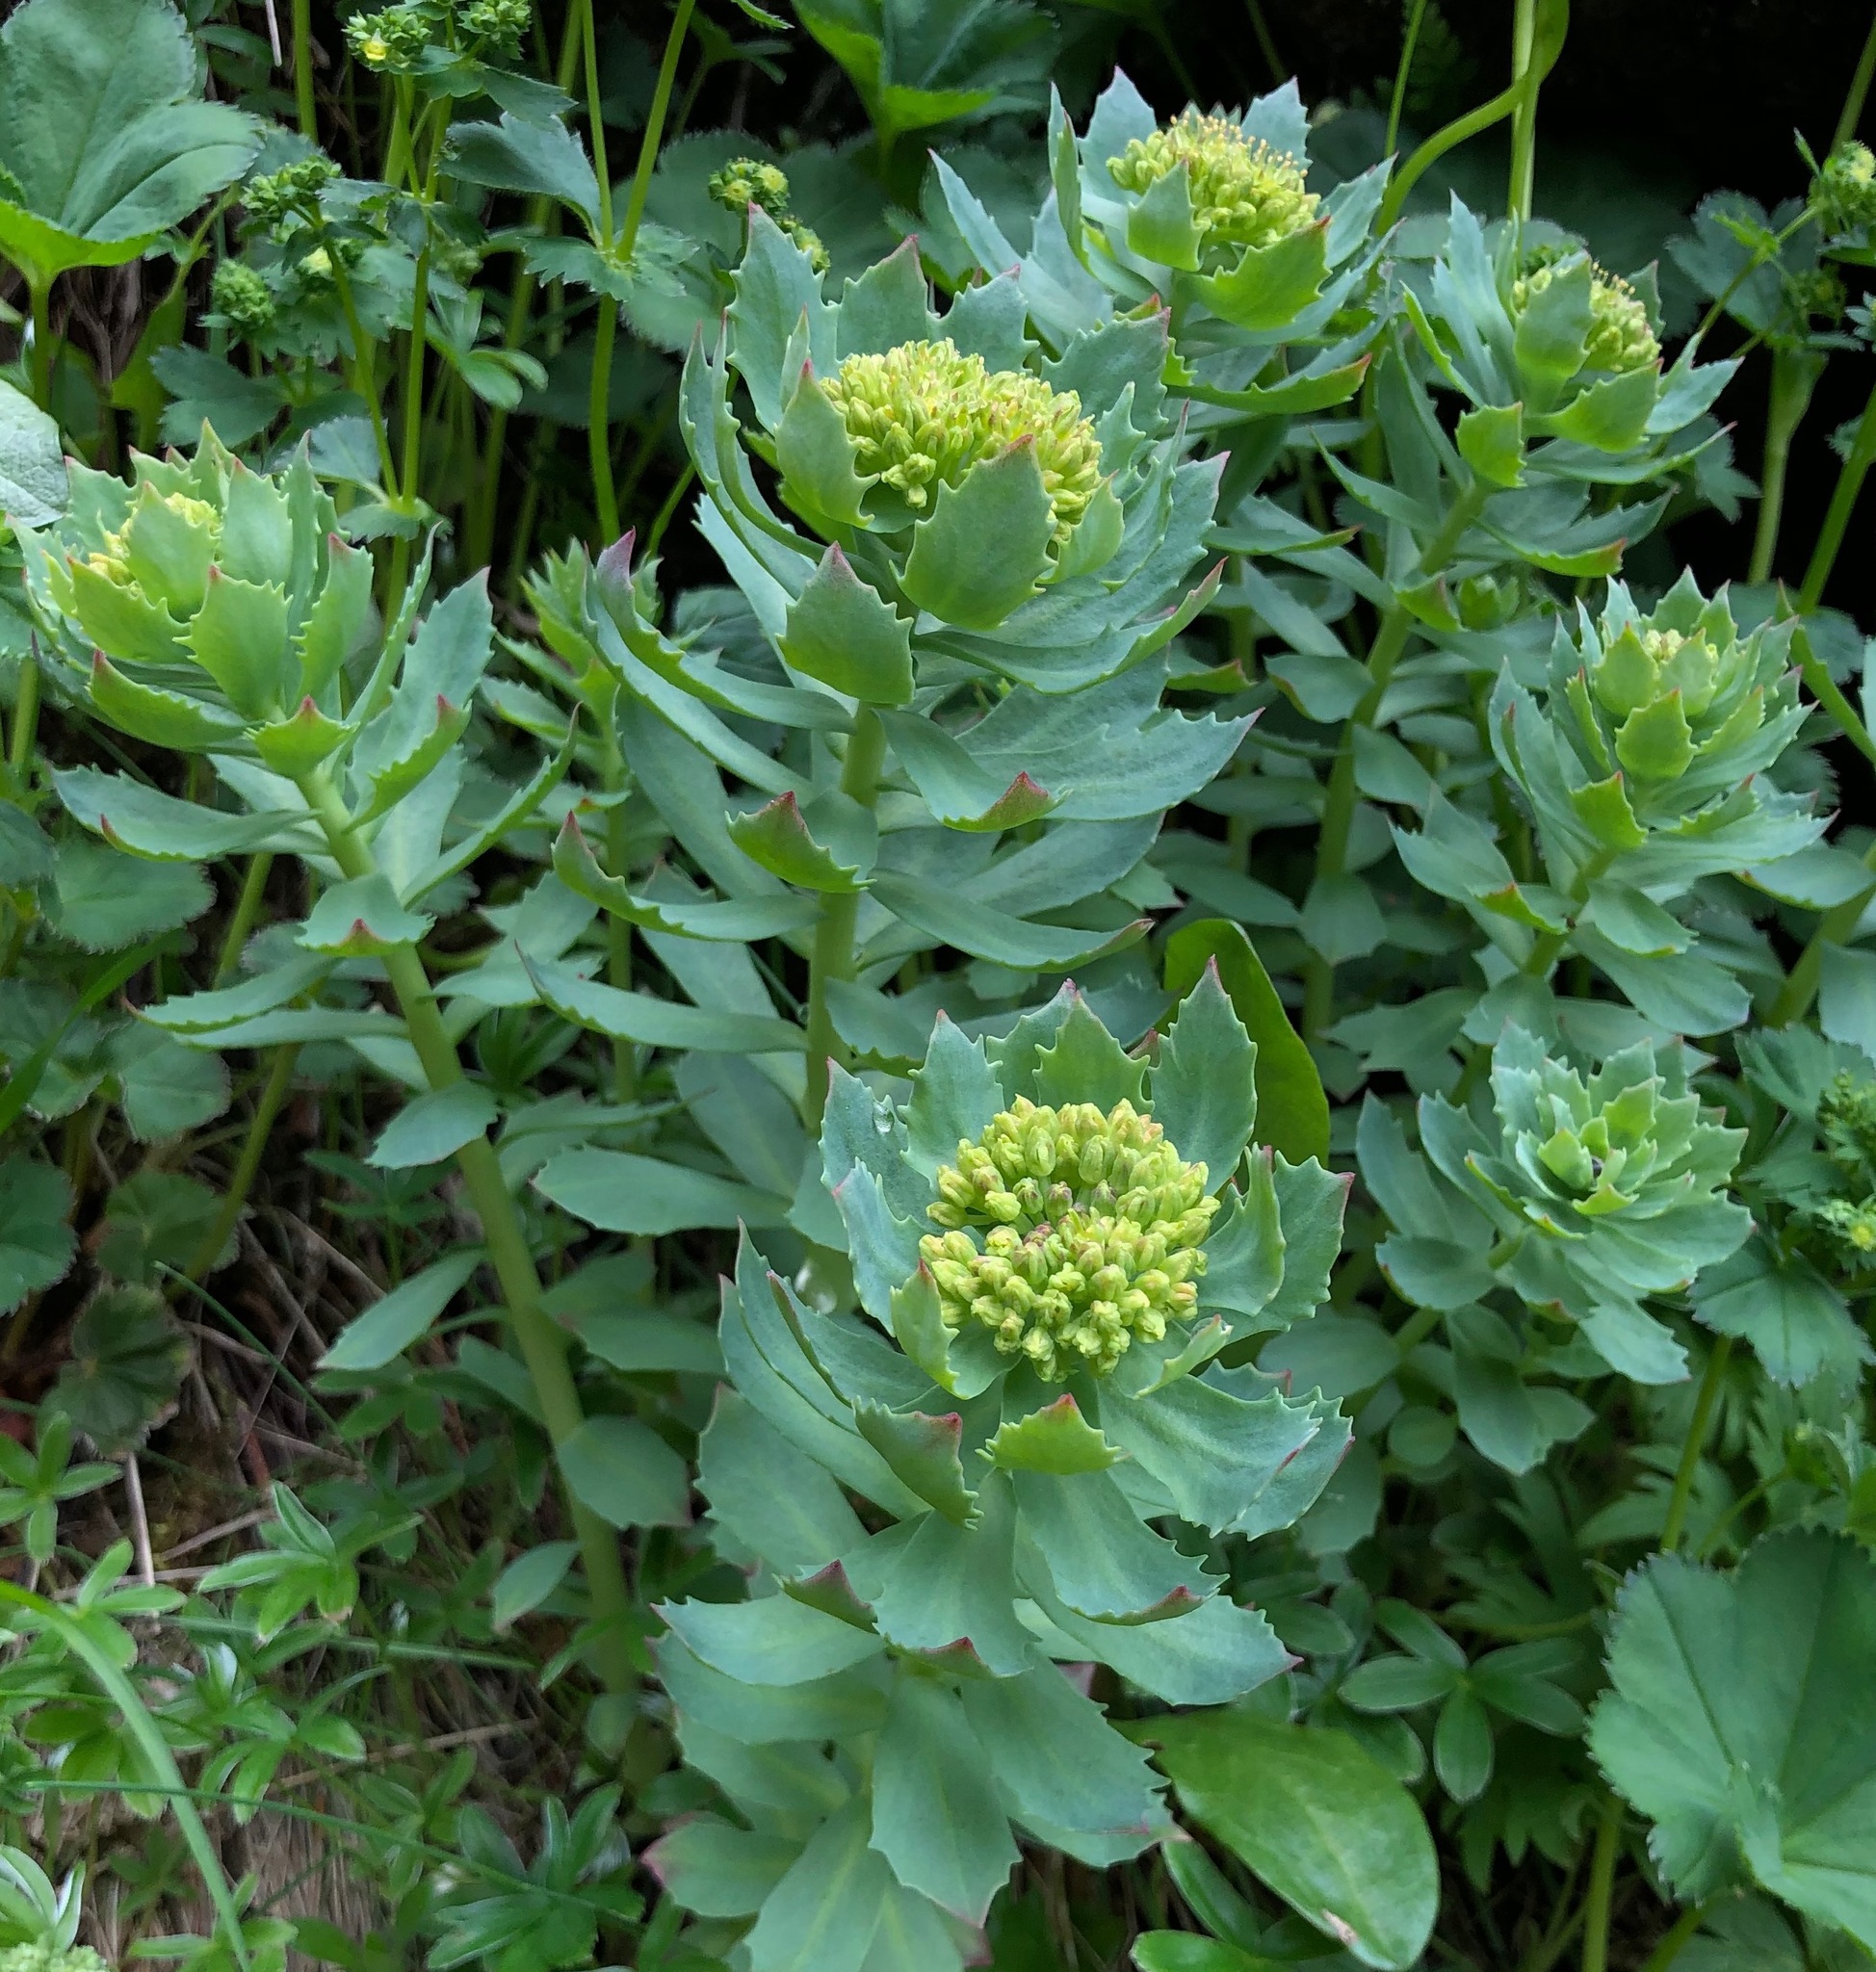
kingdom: Plantae
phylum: Tracheophyta
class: Magnoliopsida
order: Saxifragales
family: Crassulaceae
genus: Rhodiola
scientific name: Rhodiola rosea
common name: Roseroot
